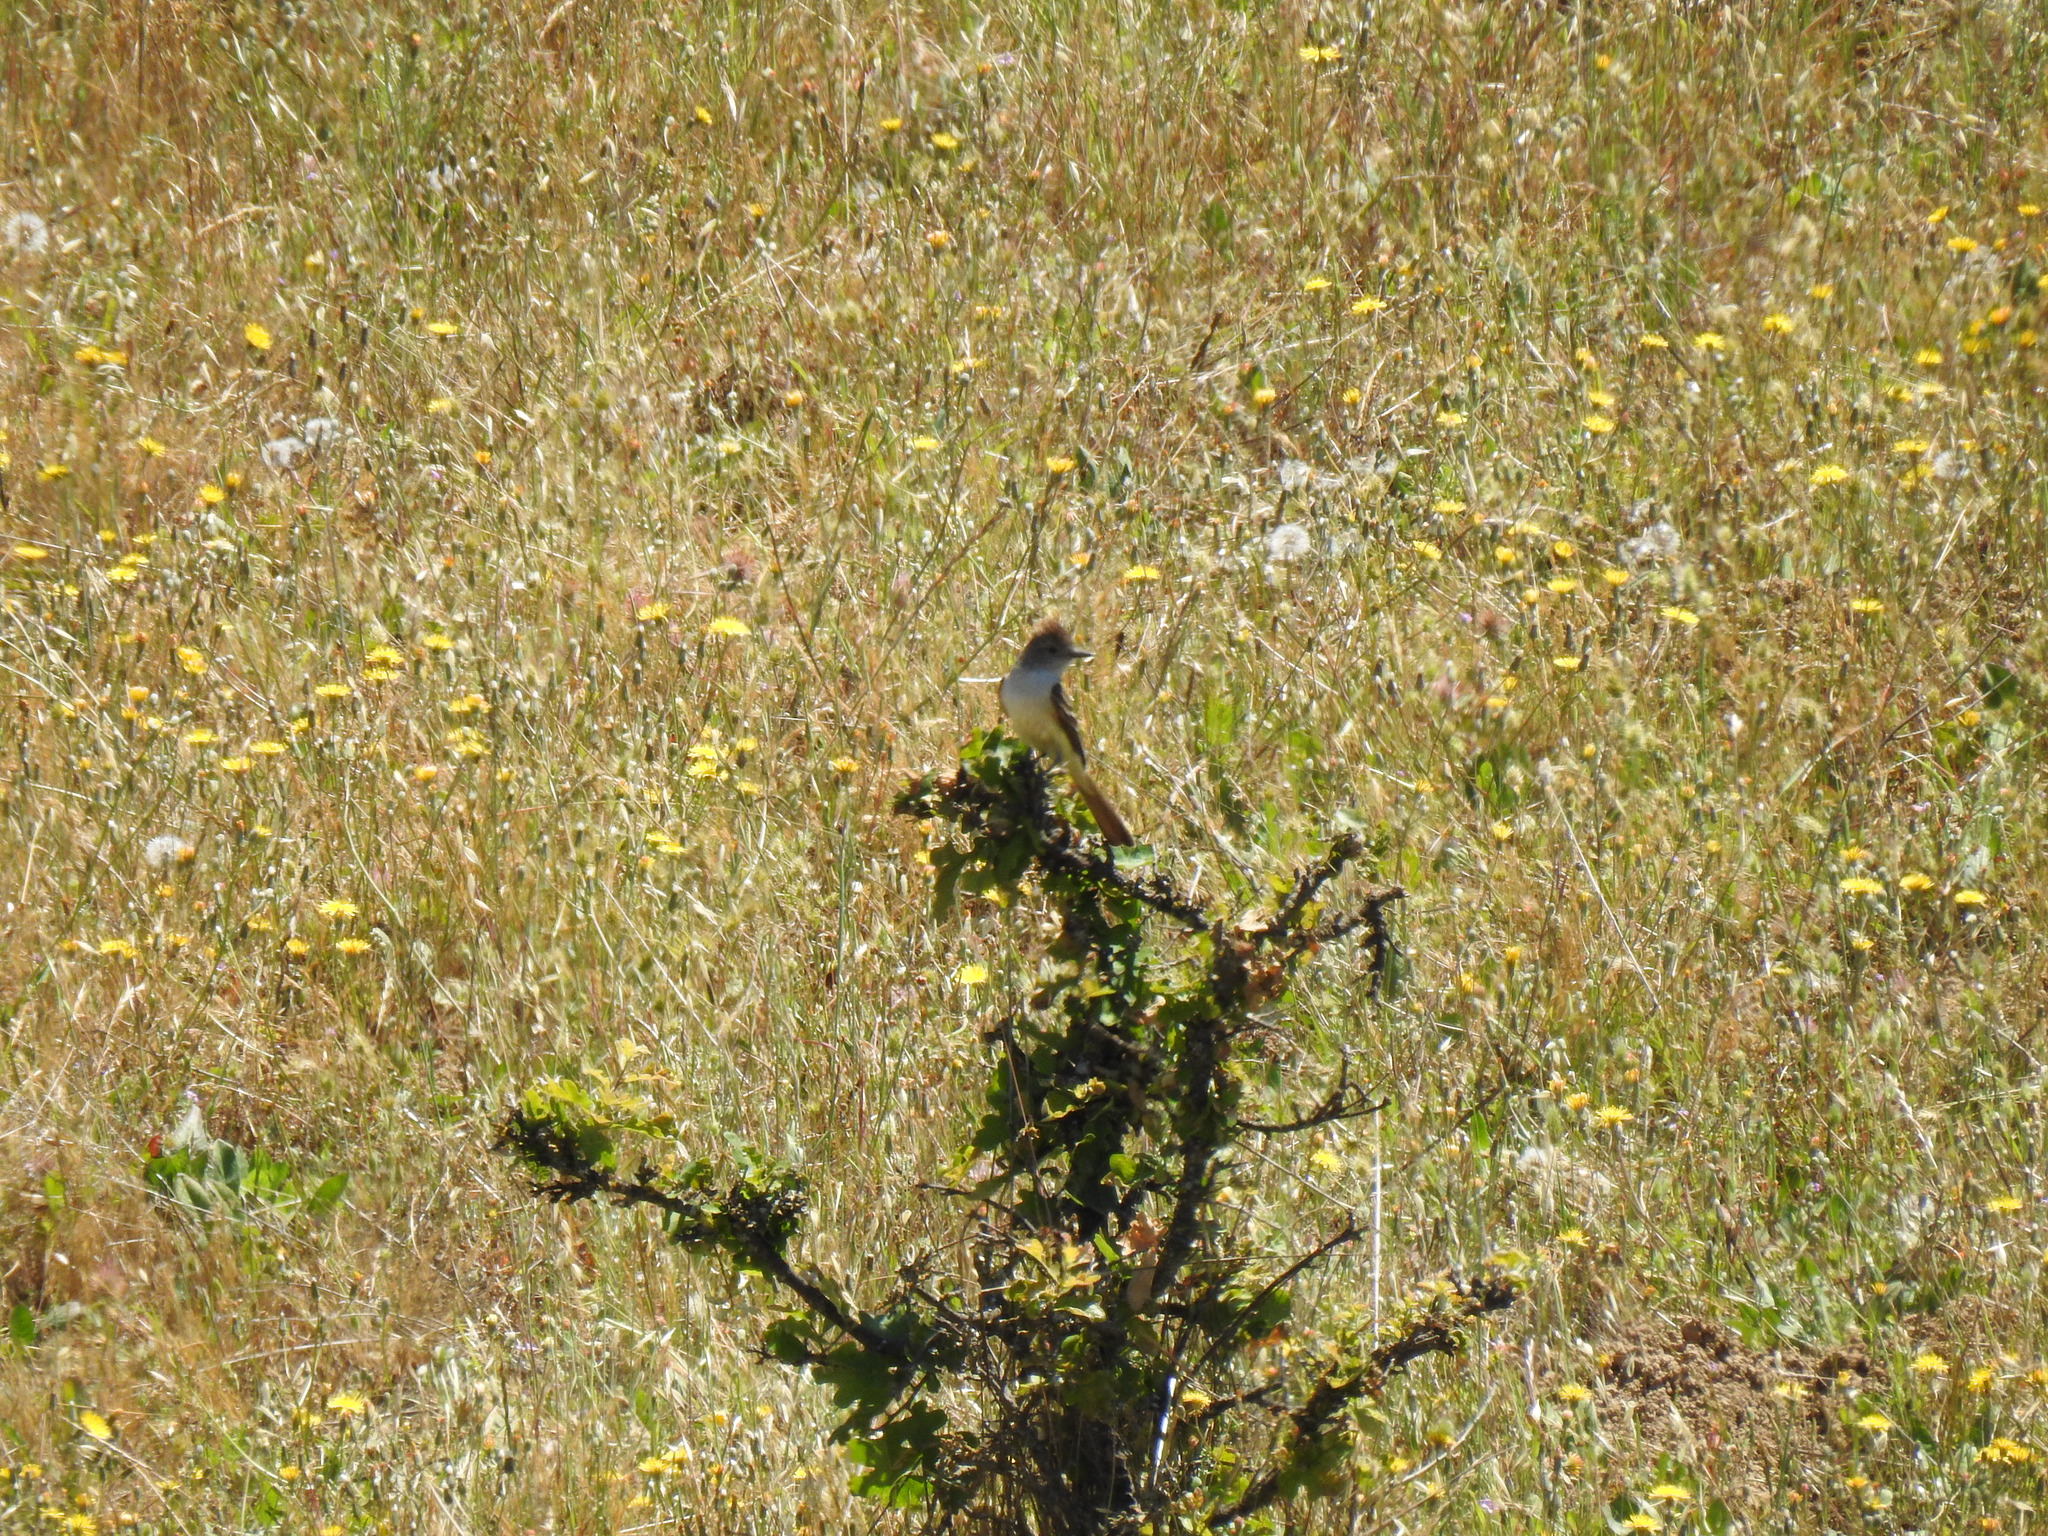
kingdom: Animalia
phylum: Chordata
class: Aves
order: Passeriformes
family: Tyrannidae
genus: Myiarchus
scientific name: Myiarchus cinerascens
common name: Ash-throated flycatcher
